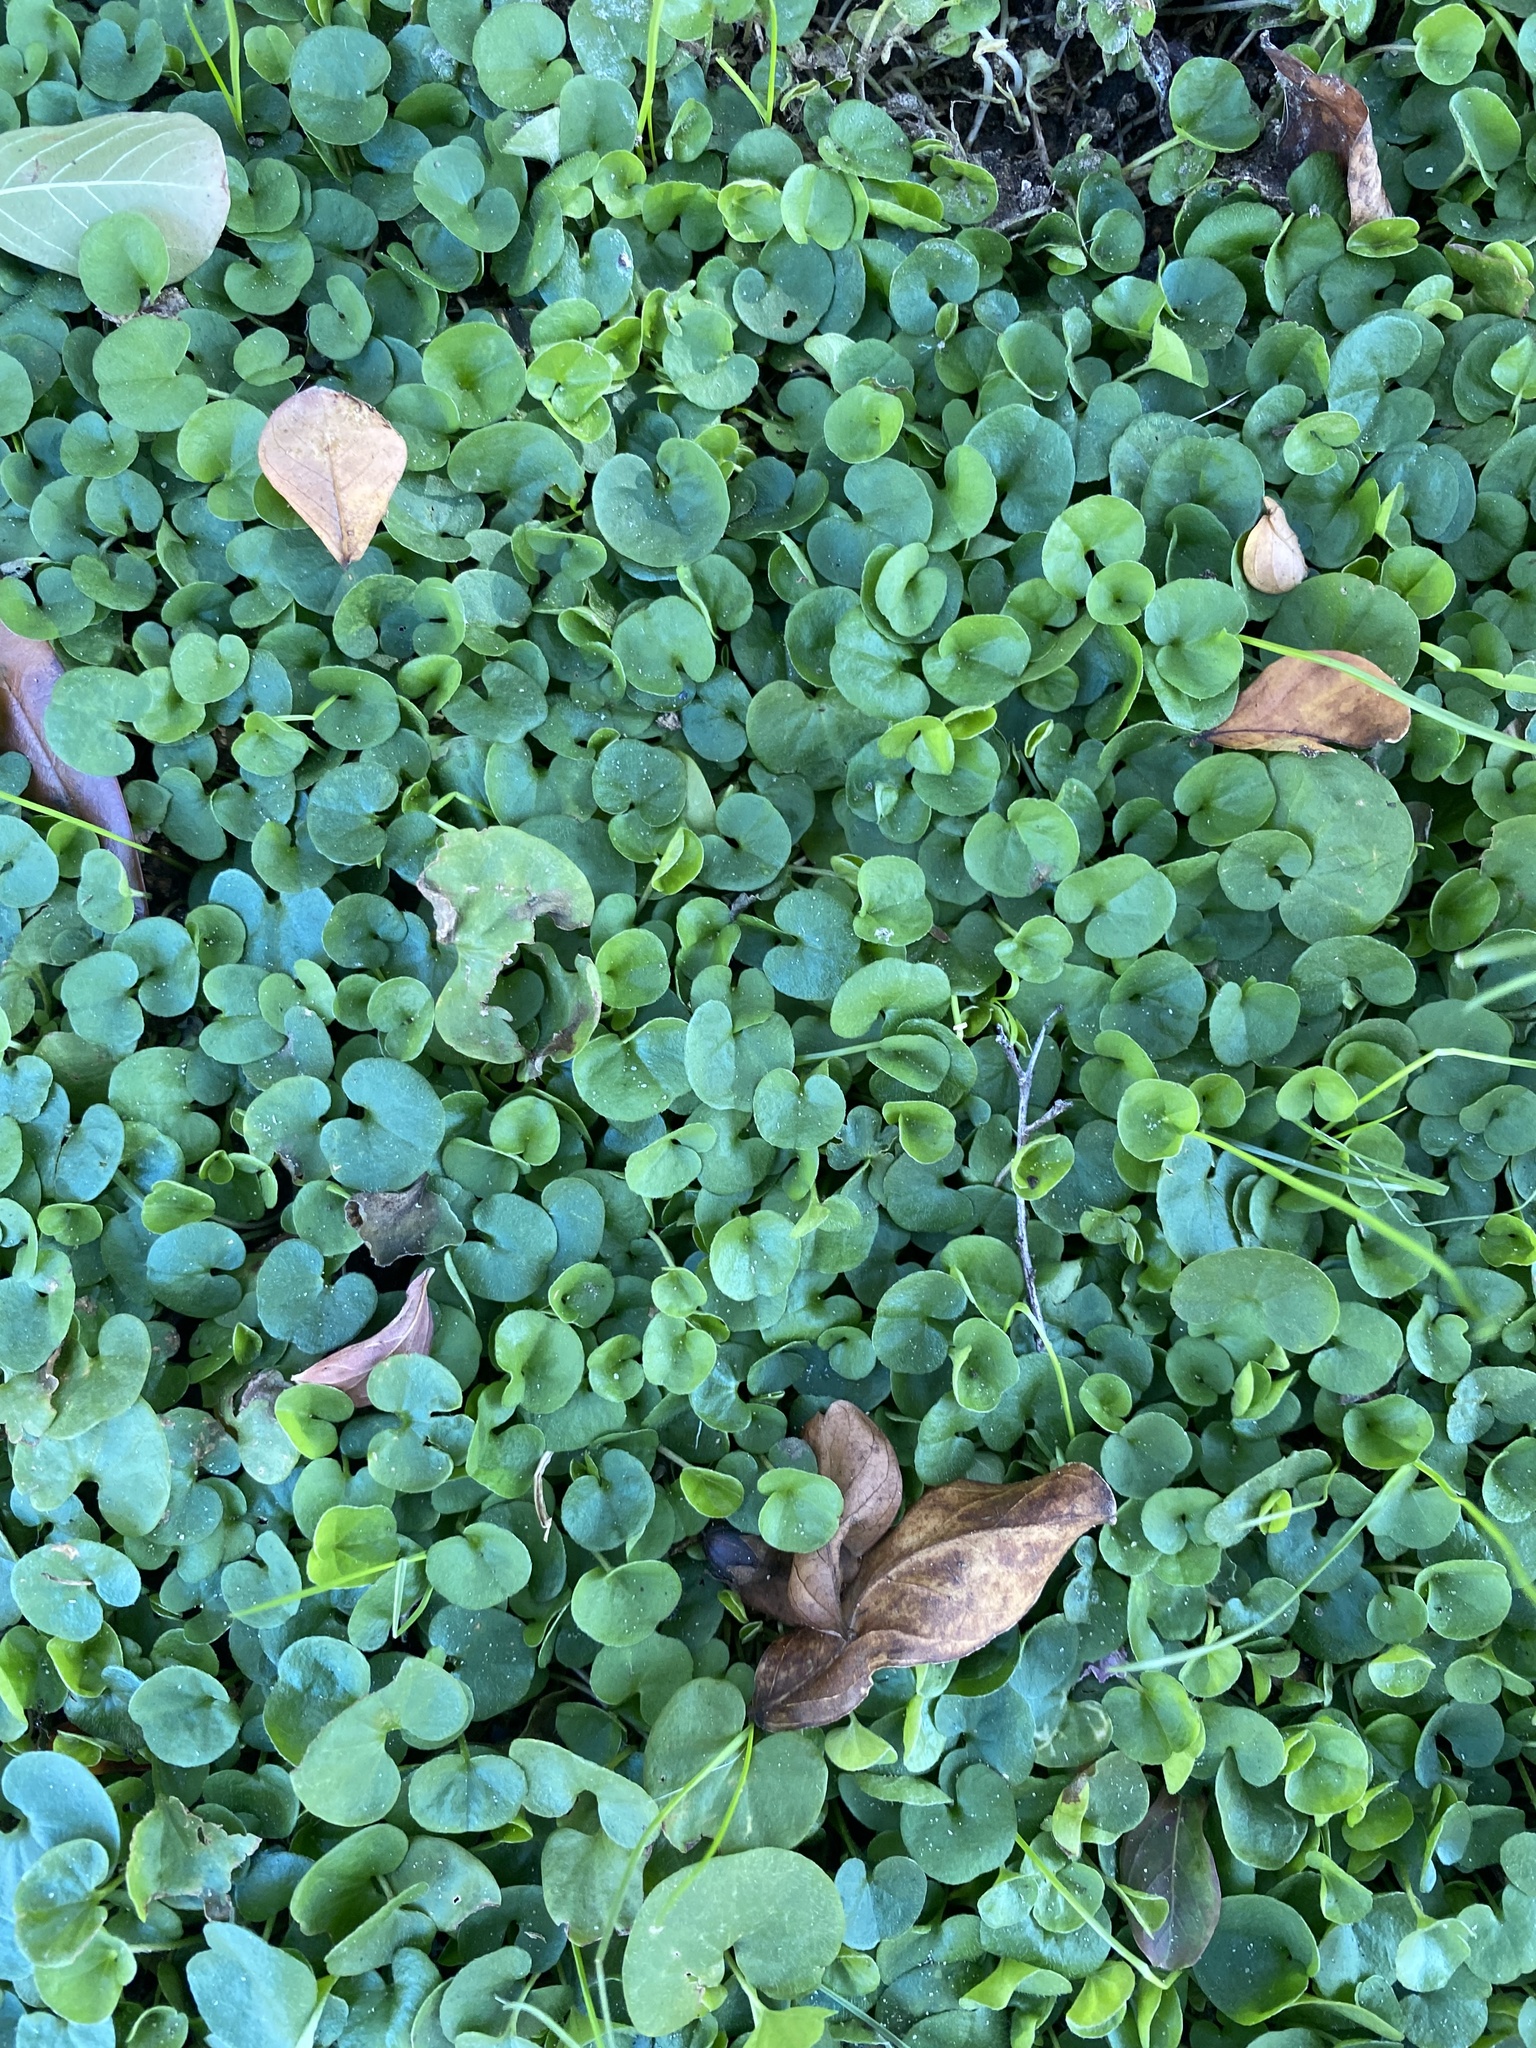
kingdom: Plantae
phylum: Tracheophyta
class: Magnoliopsida
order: Solanales
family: Convolvulaceae
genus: Dichondra
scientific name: Dichondra carolinensis
